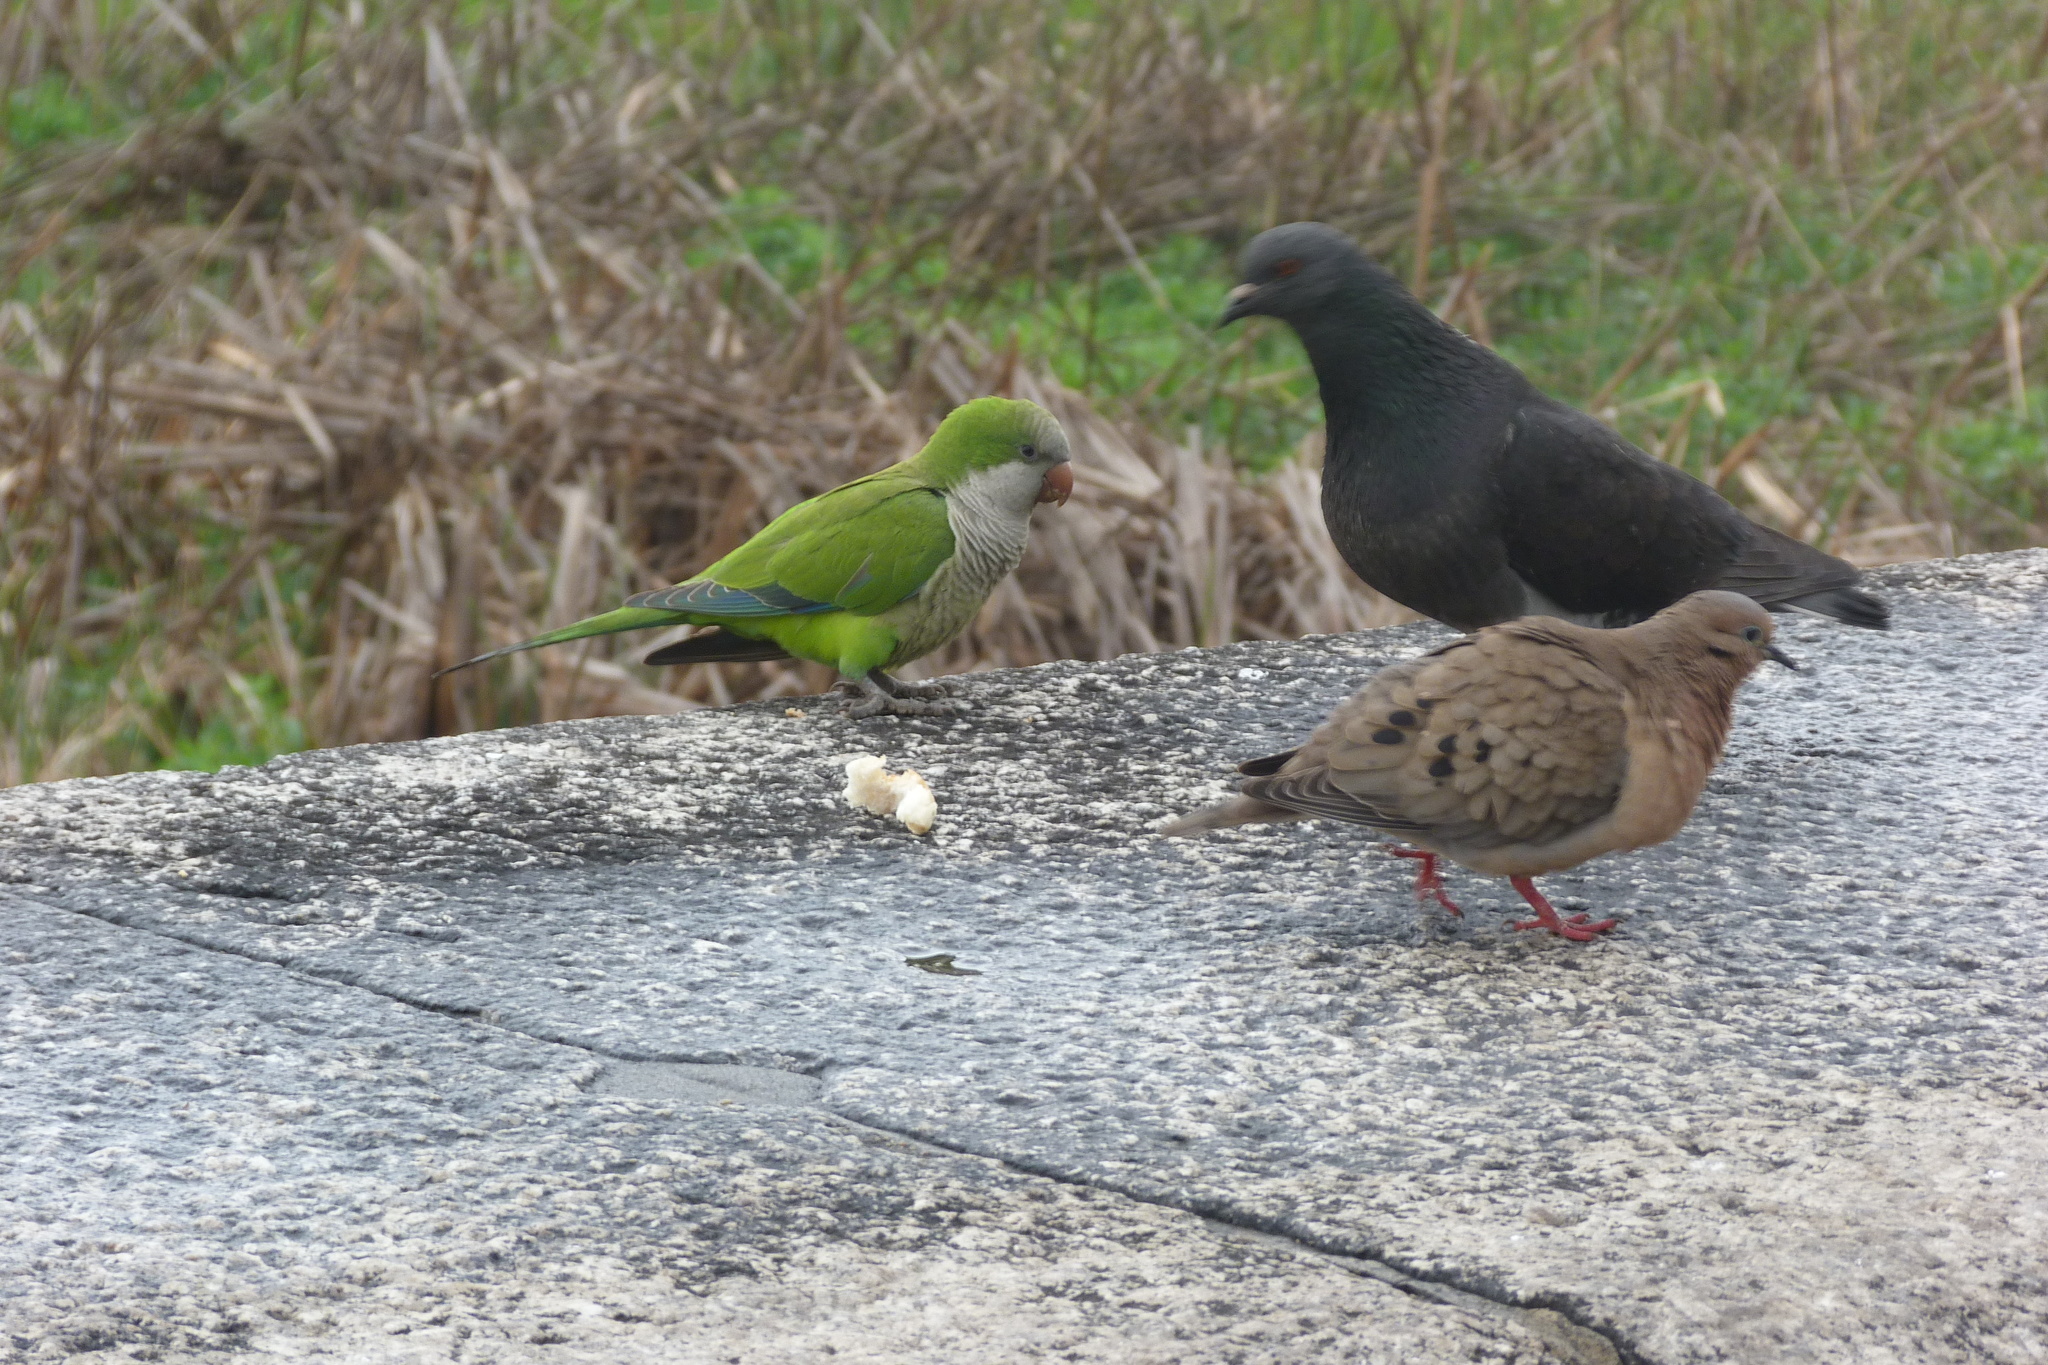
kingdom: Animalia
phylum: Chordata
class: Aves
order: Psittaciformes
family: Psittacidae
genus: Myiopsitta
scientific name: Myiopsitta monachus
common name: Monk parakeet
